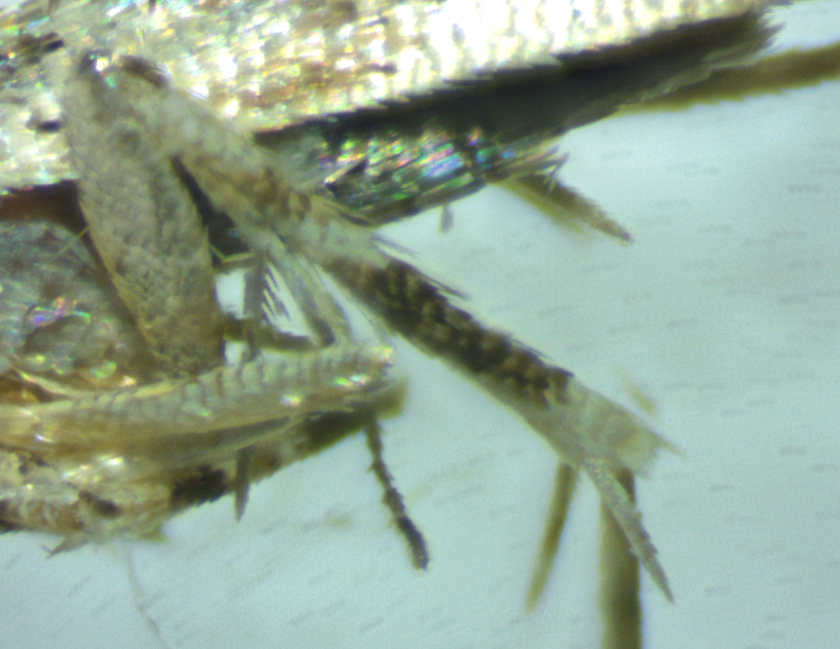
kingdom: Animalia
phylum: Arthropoda
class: Insecta
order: Lepidoptera
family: Cosmopterigidae
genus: Anatrachyntis
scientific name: Anatrachyntis rileyi
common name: Moth
